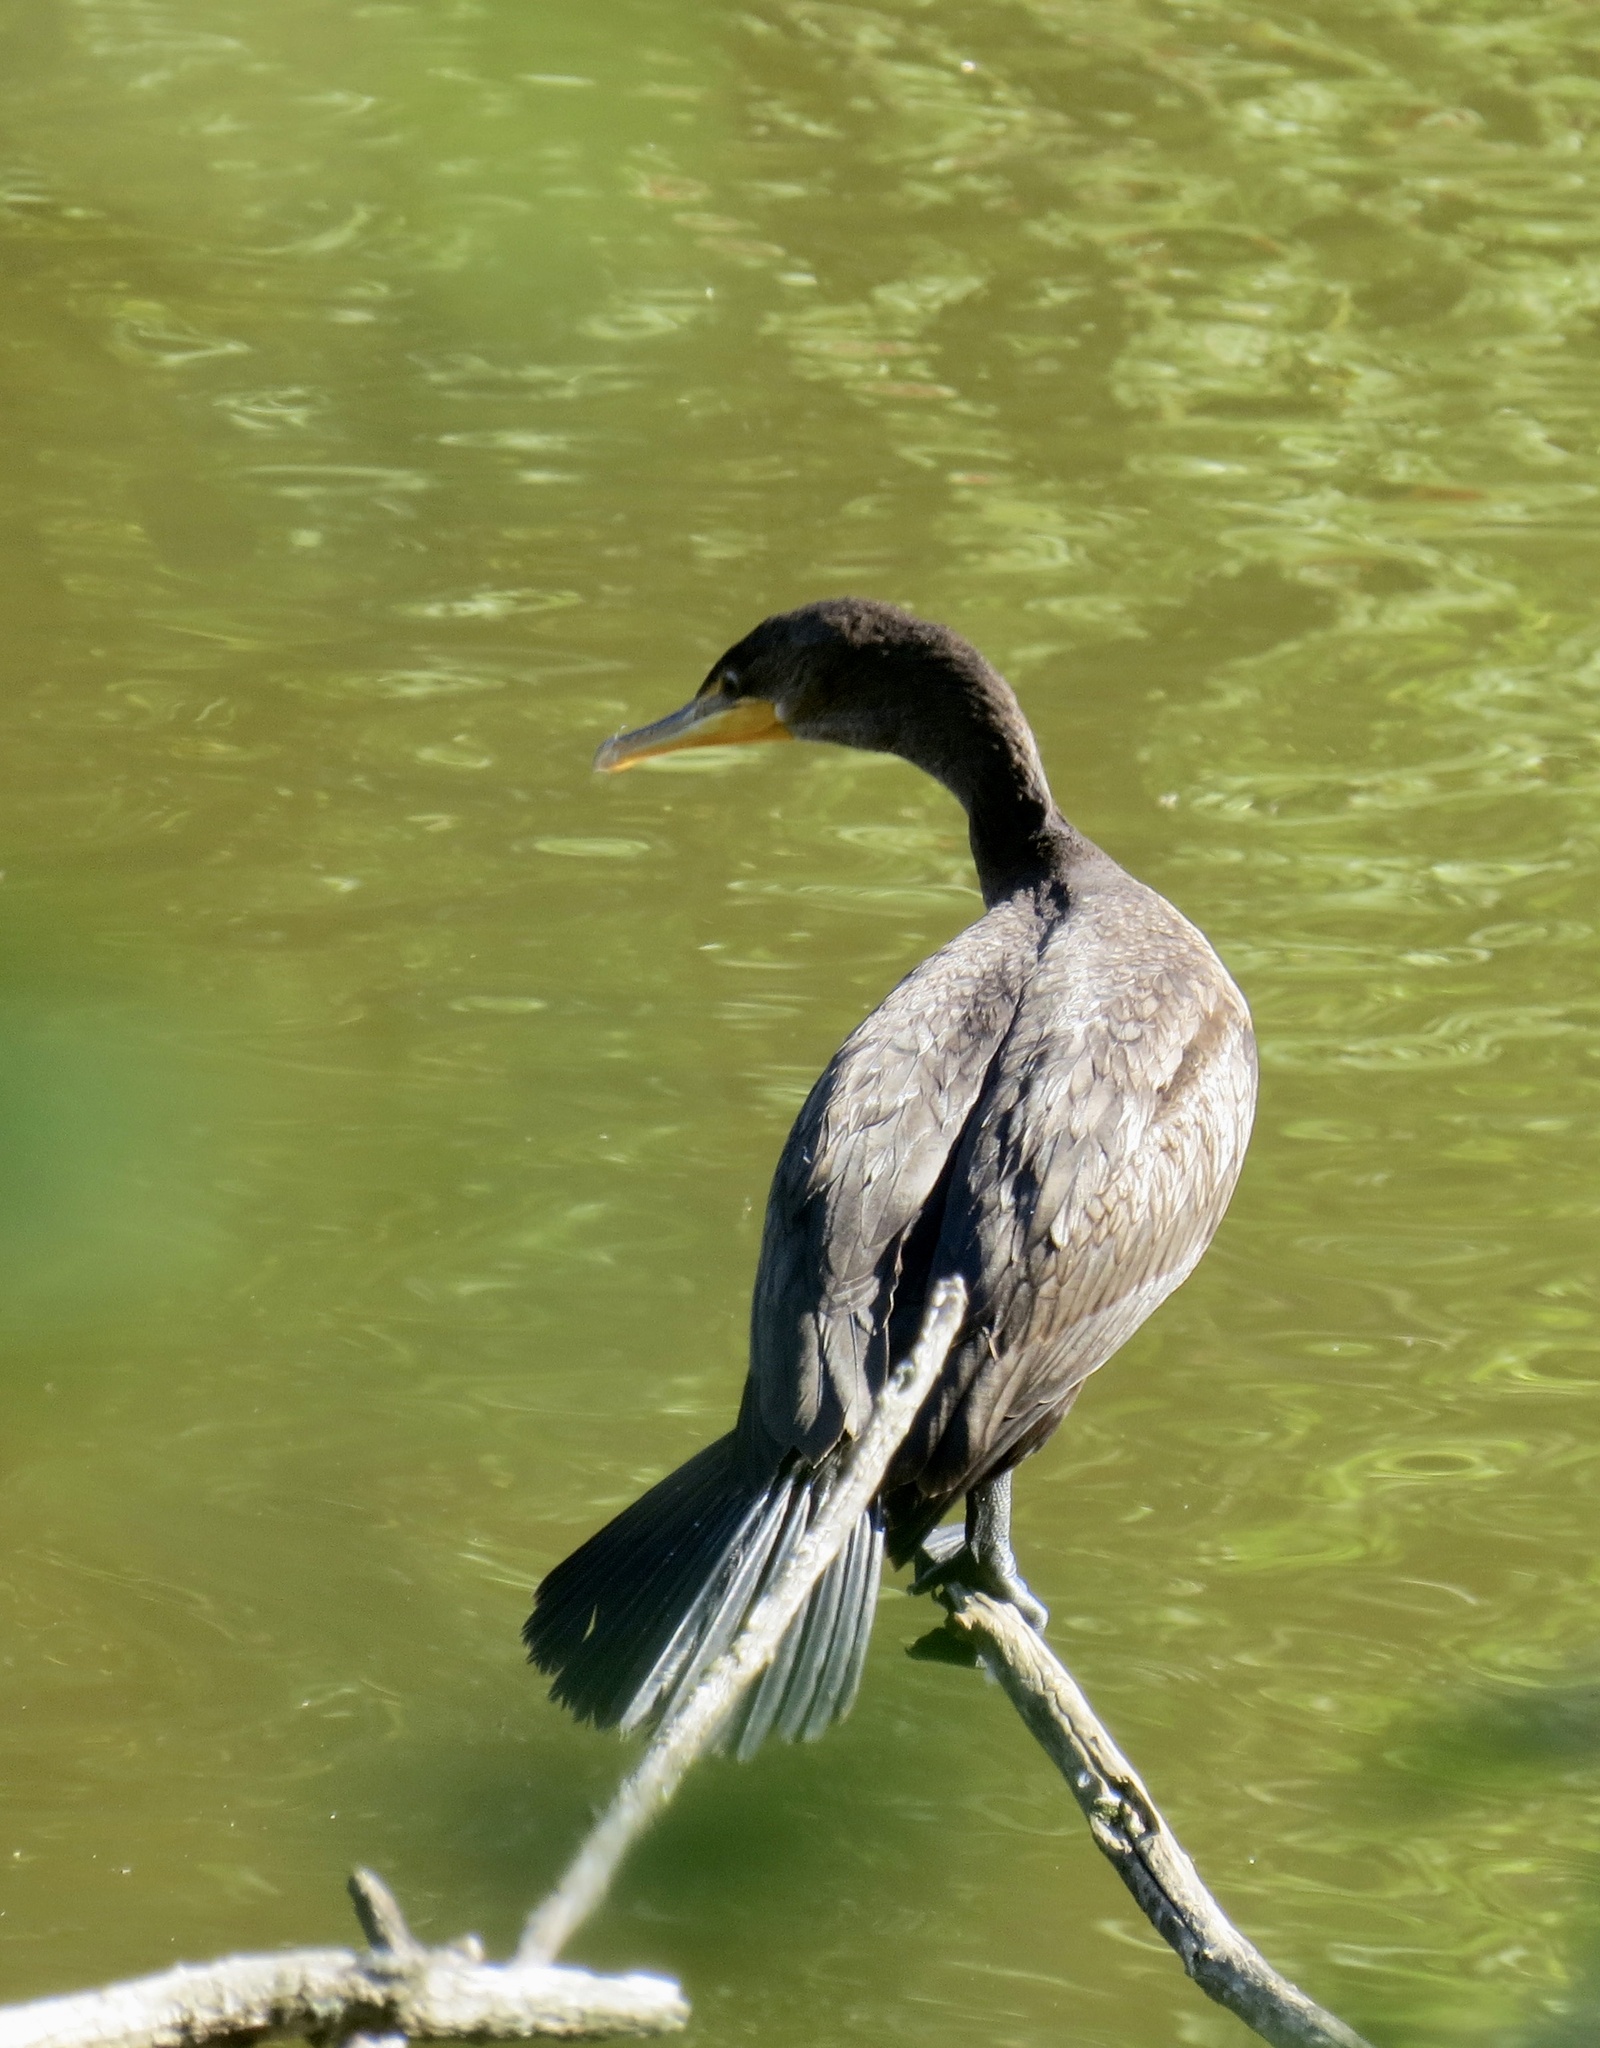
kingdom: Animalia
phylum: Chordata
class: Aves
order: Suliformes
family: Phalacrocoracidae
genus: Phalacrocorax
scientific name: Phalacrocorax auritus
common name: Double-crested cormorant
